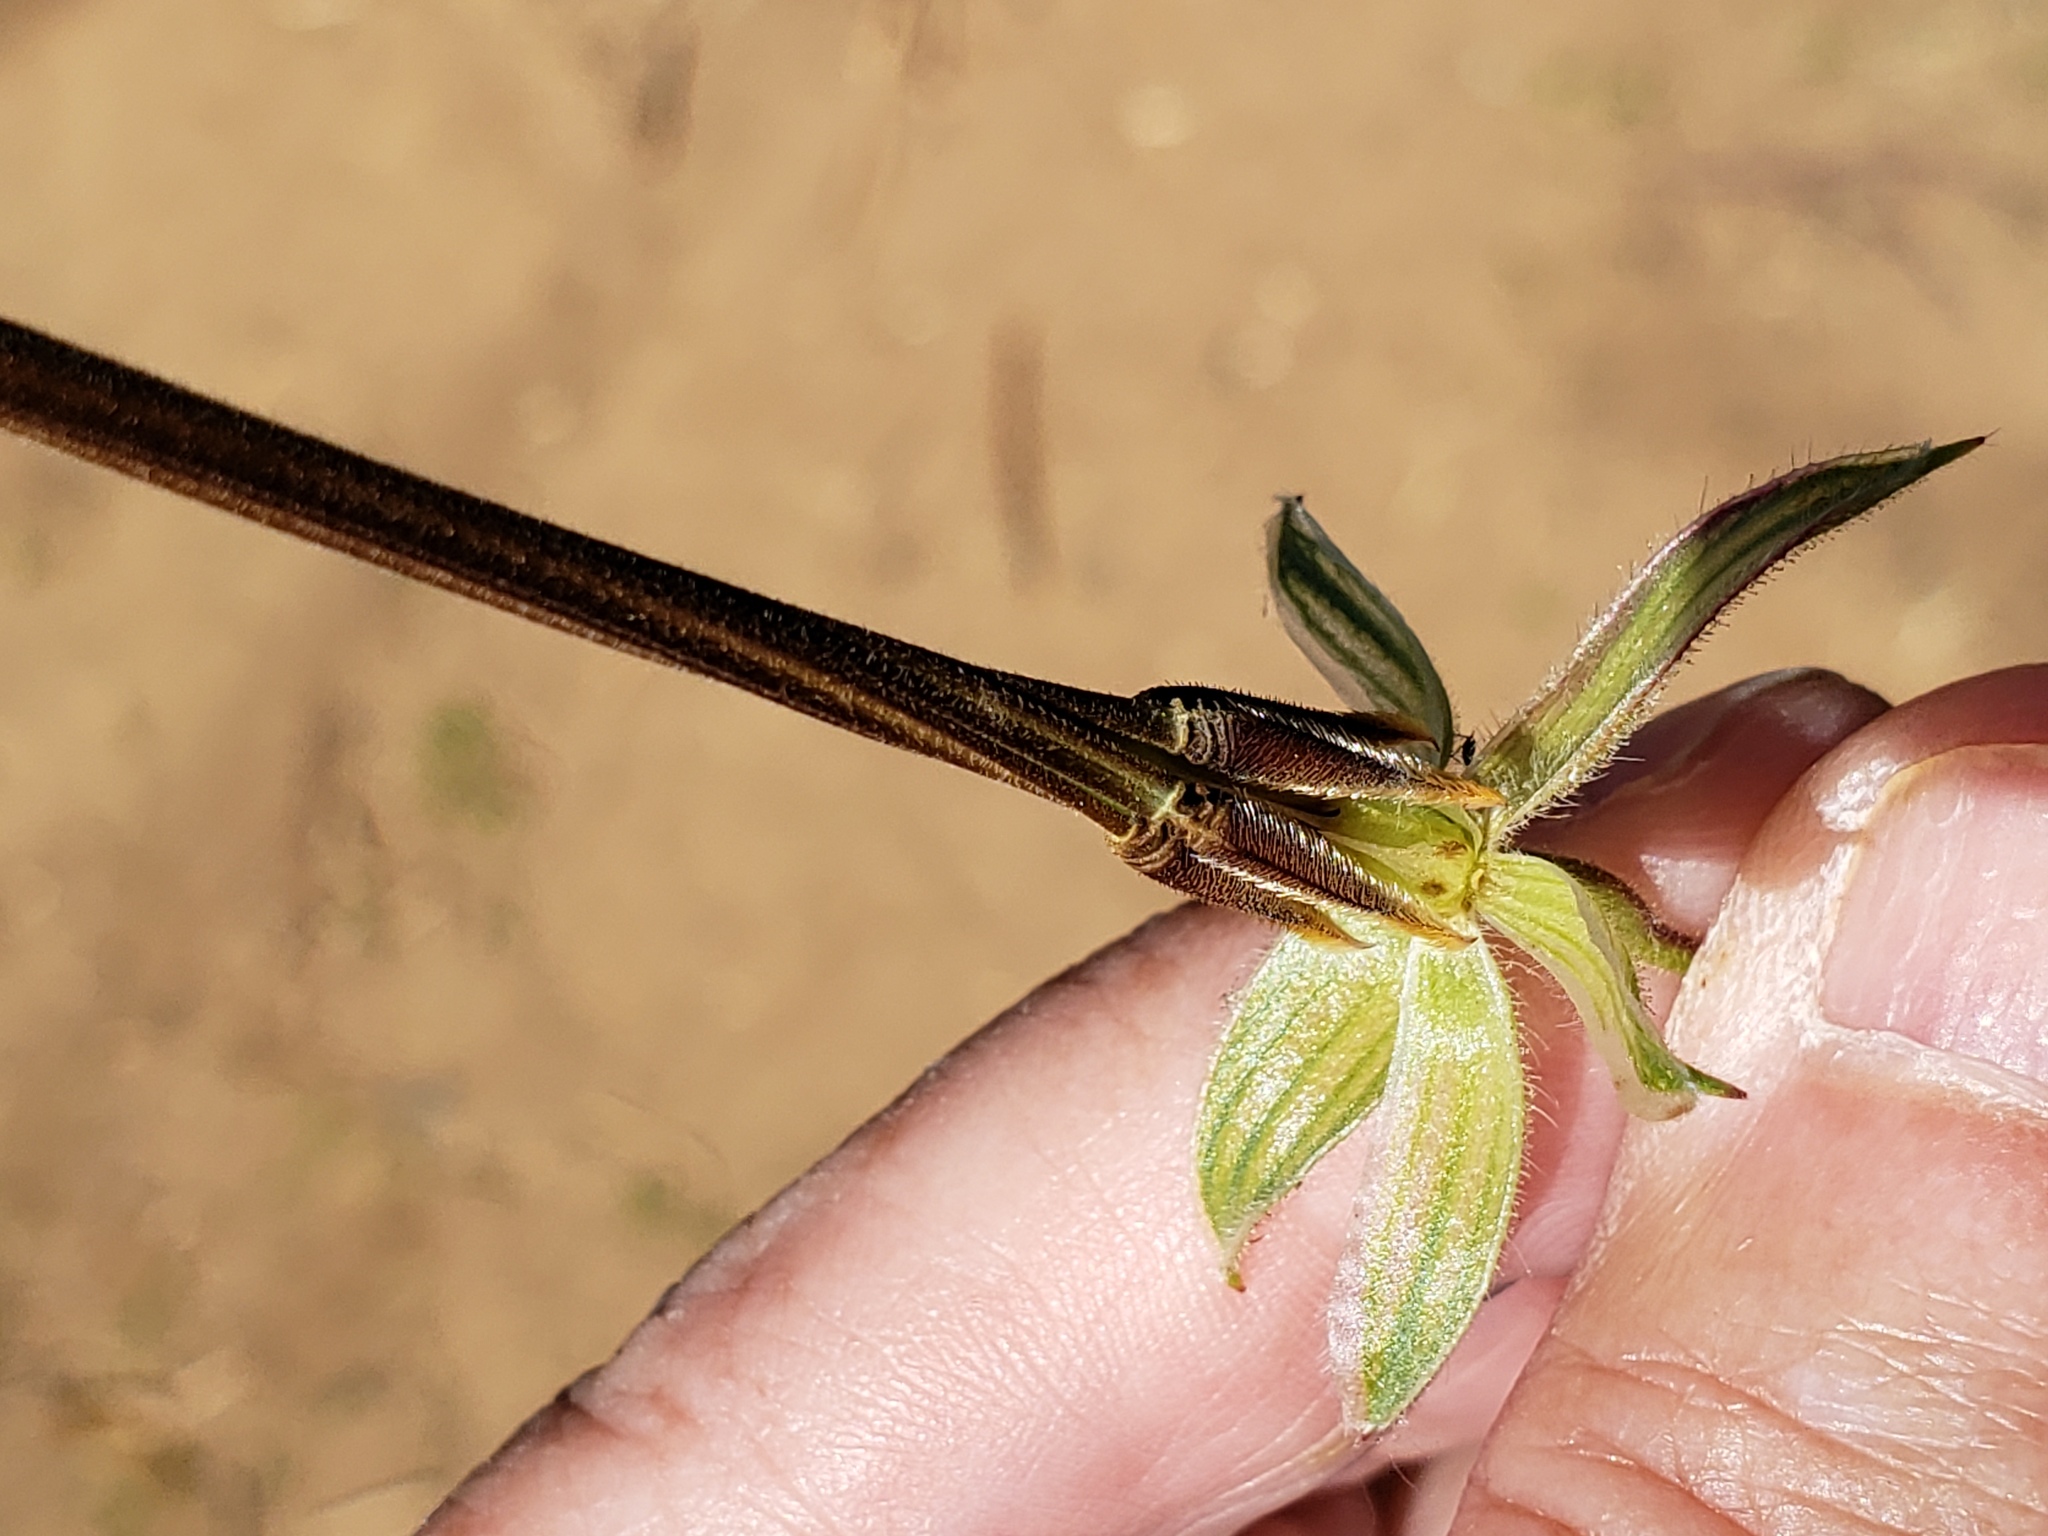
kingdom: Plantae
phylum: Tracheophyta
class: Magnoliopsida
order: Geraniales
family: Geraniaceae
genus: Erodium
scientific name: Erodium botrys
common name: Mediterranean stork's-bill
